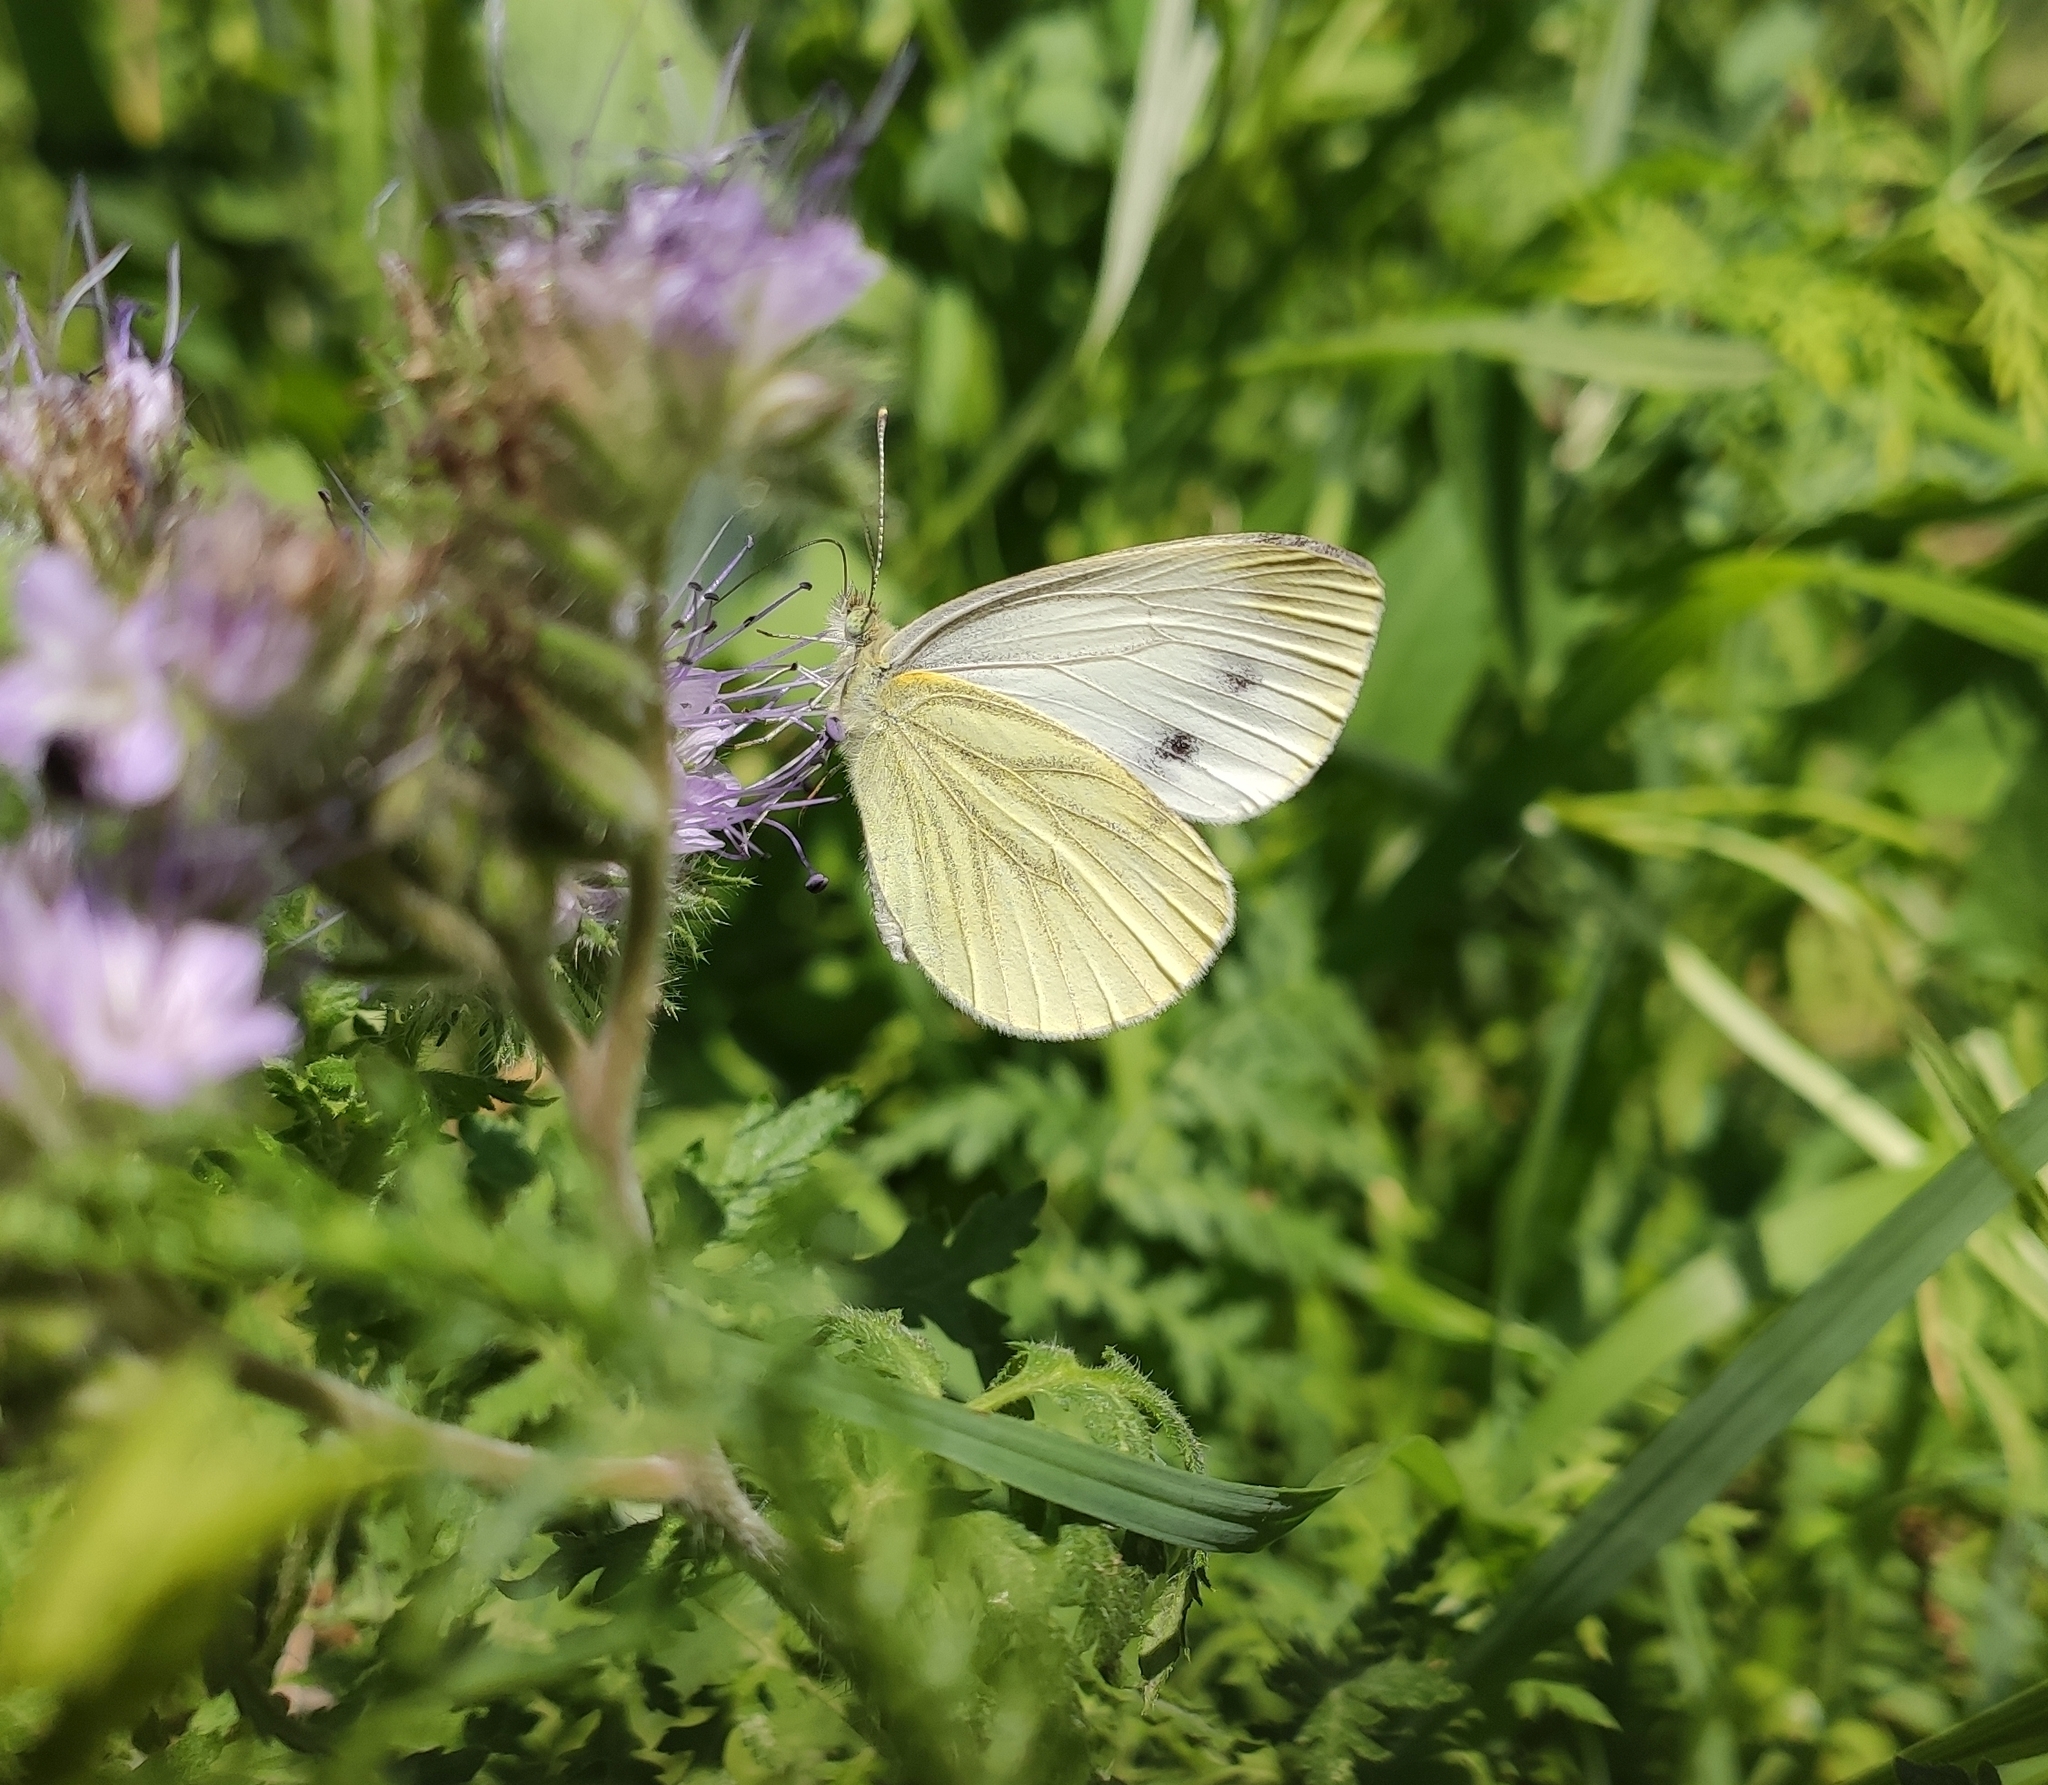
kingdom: Animalia
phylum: Arthropoda
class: Insecta
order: Lepidoptera
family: Pieridae
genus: Pieris
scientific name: Pieris napi
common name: Green-veined white
